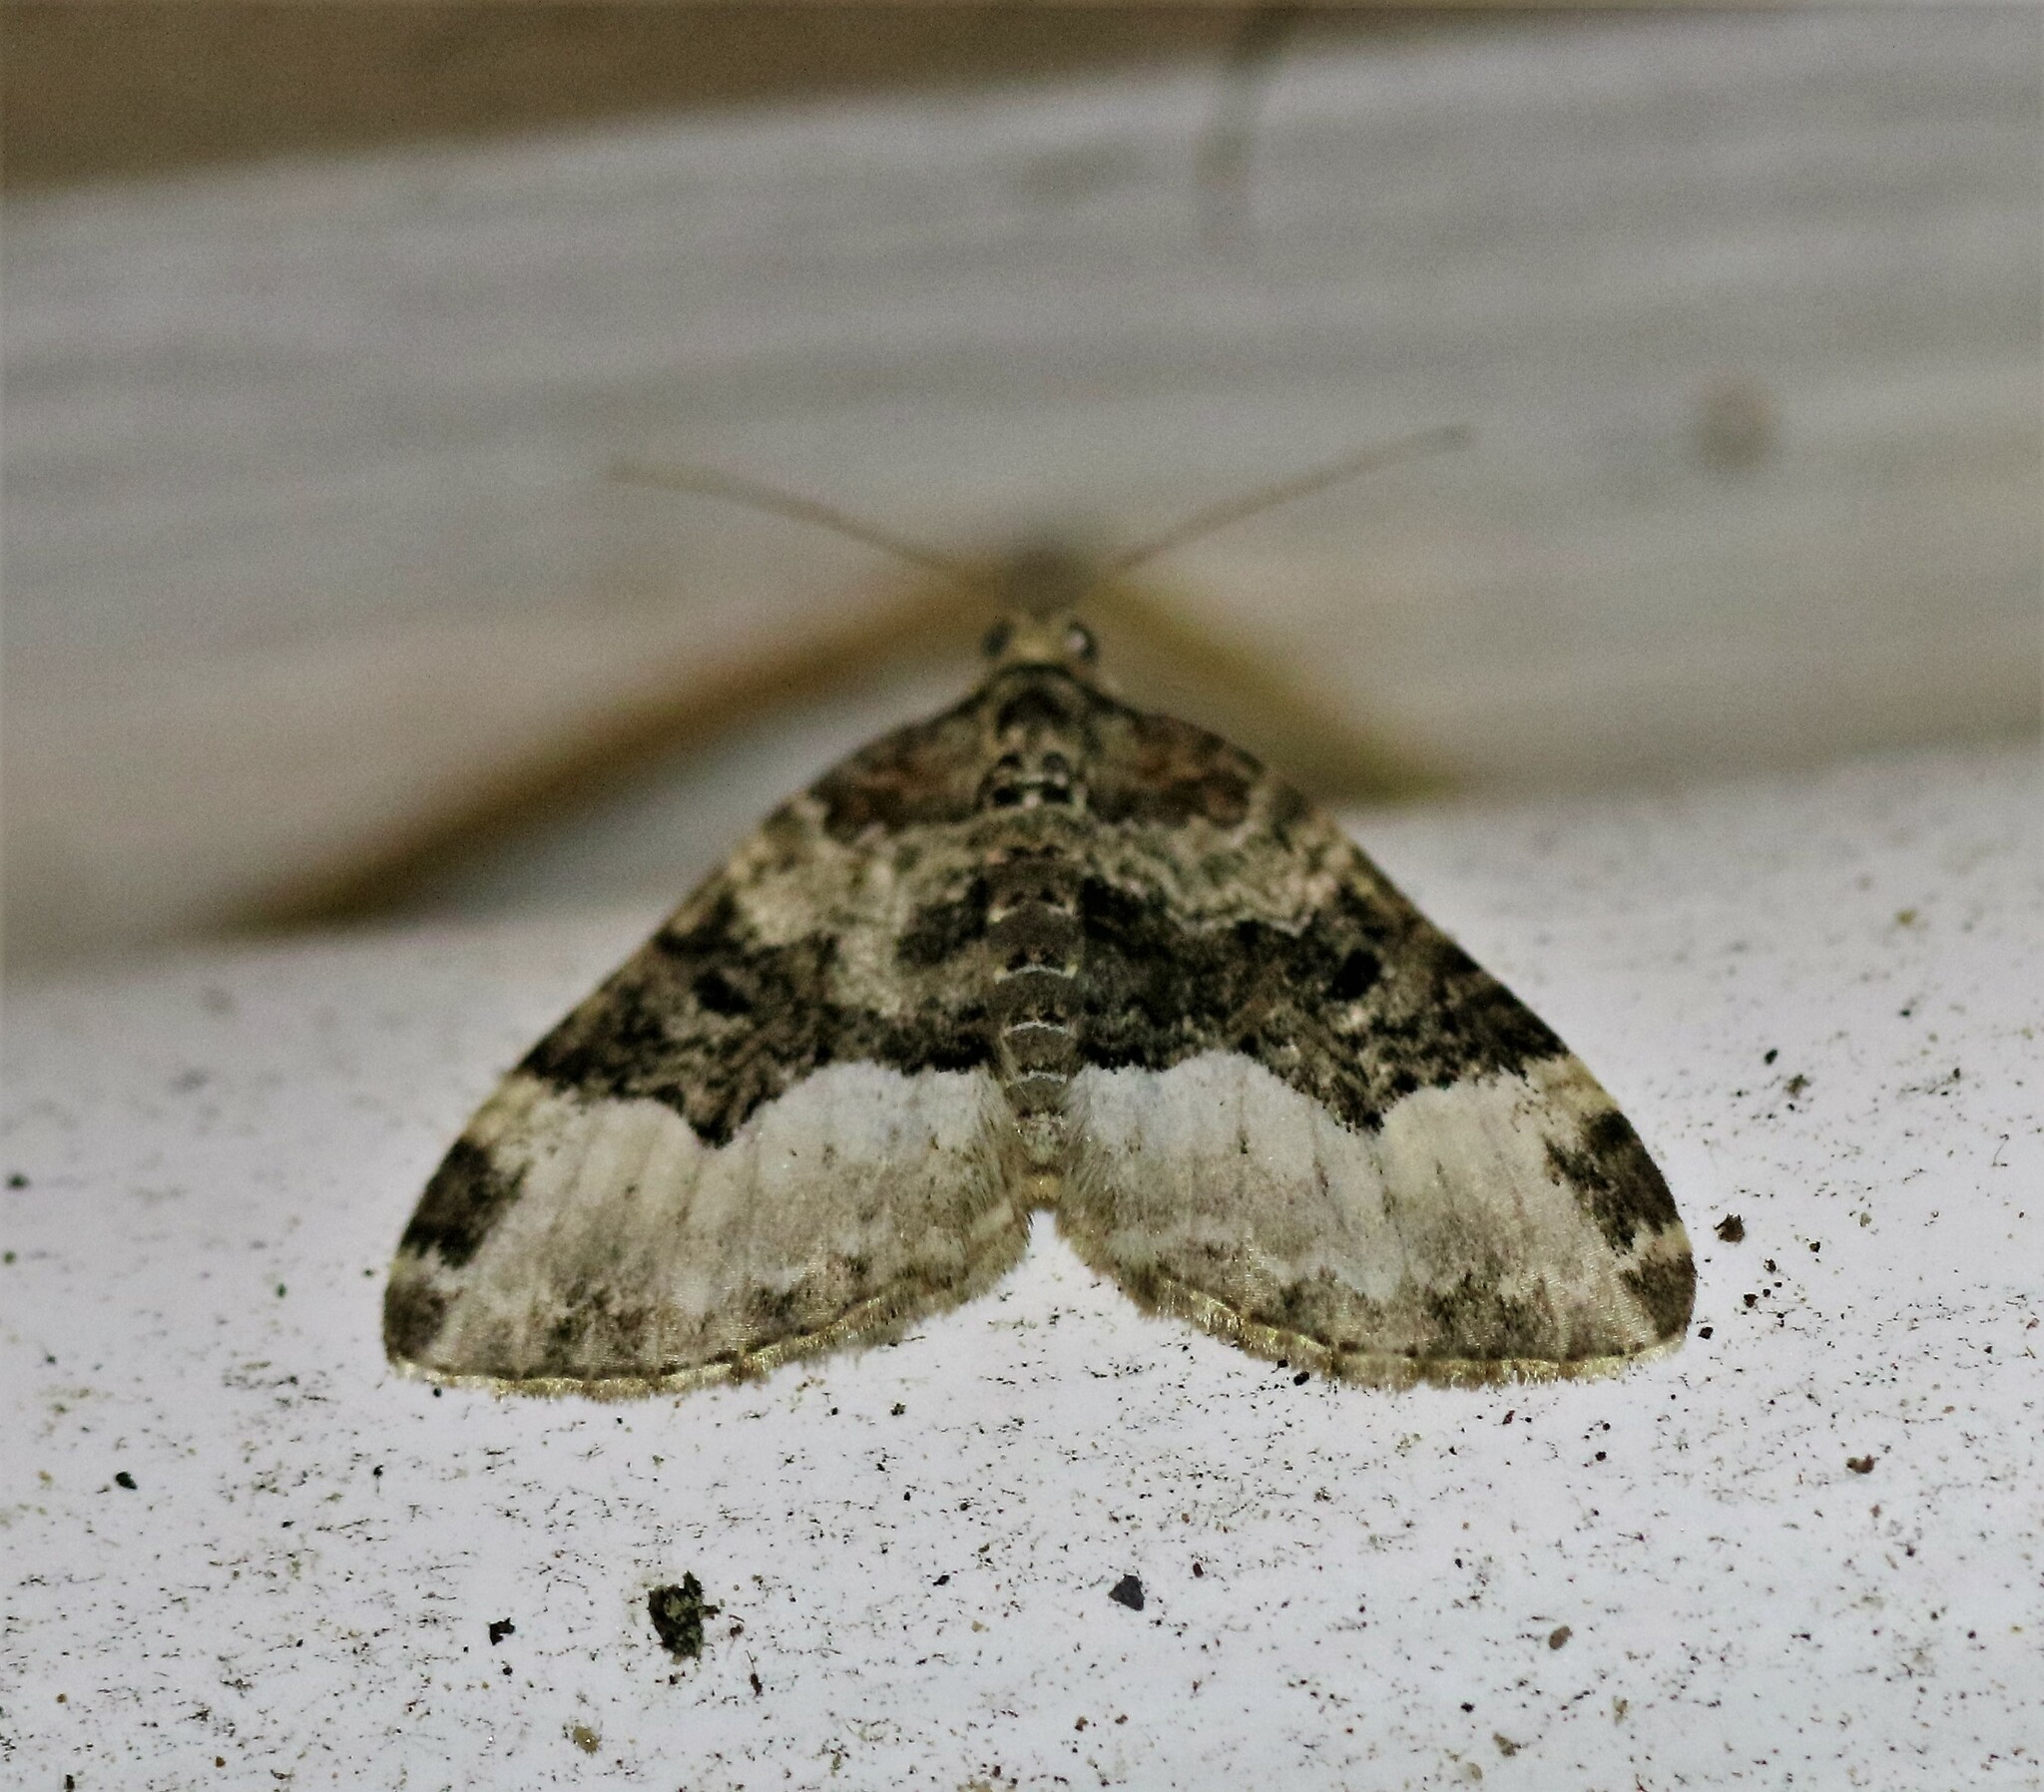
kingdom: Animalia
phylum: Arthropoda
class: Insecta
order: Lepidoptera
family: Geometridae
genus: Euphyia
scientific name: Euphyia intermediata
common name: Sharp-angled carpet
